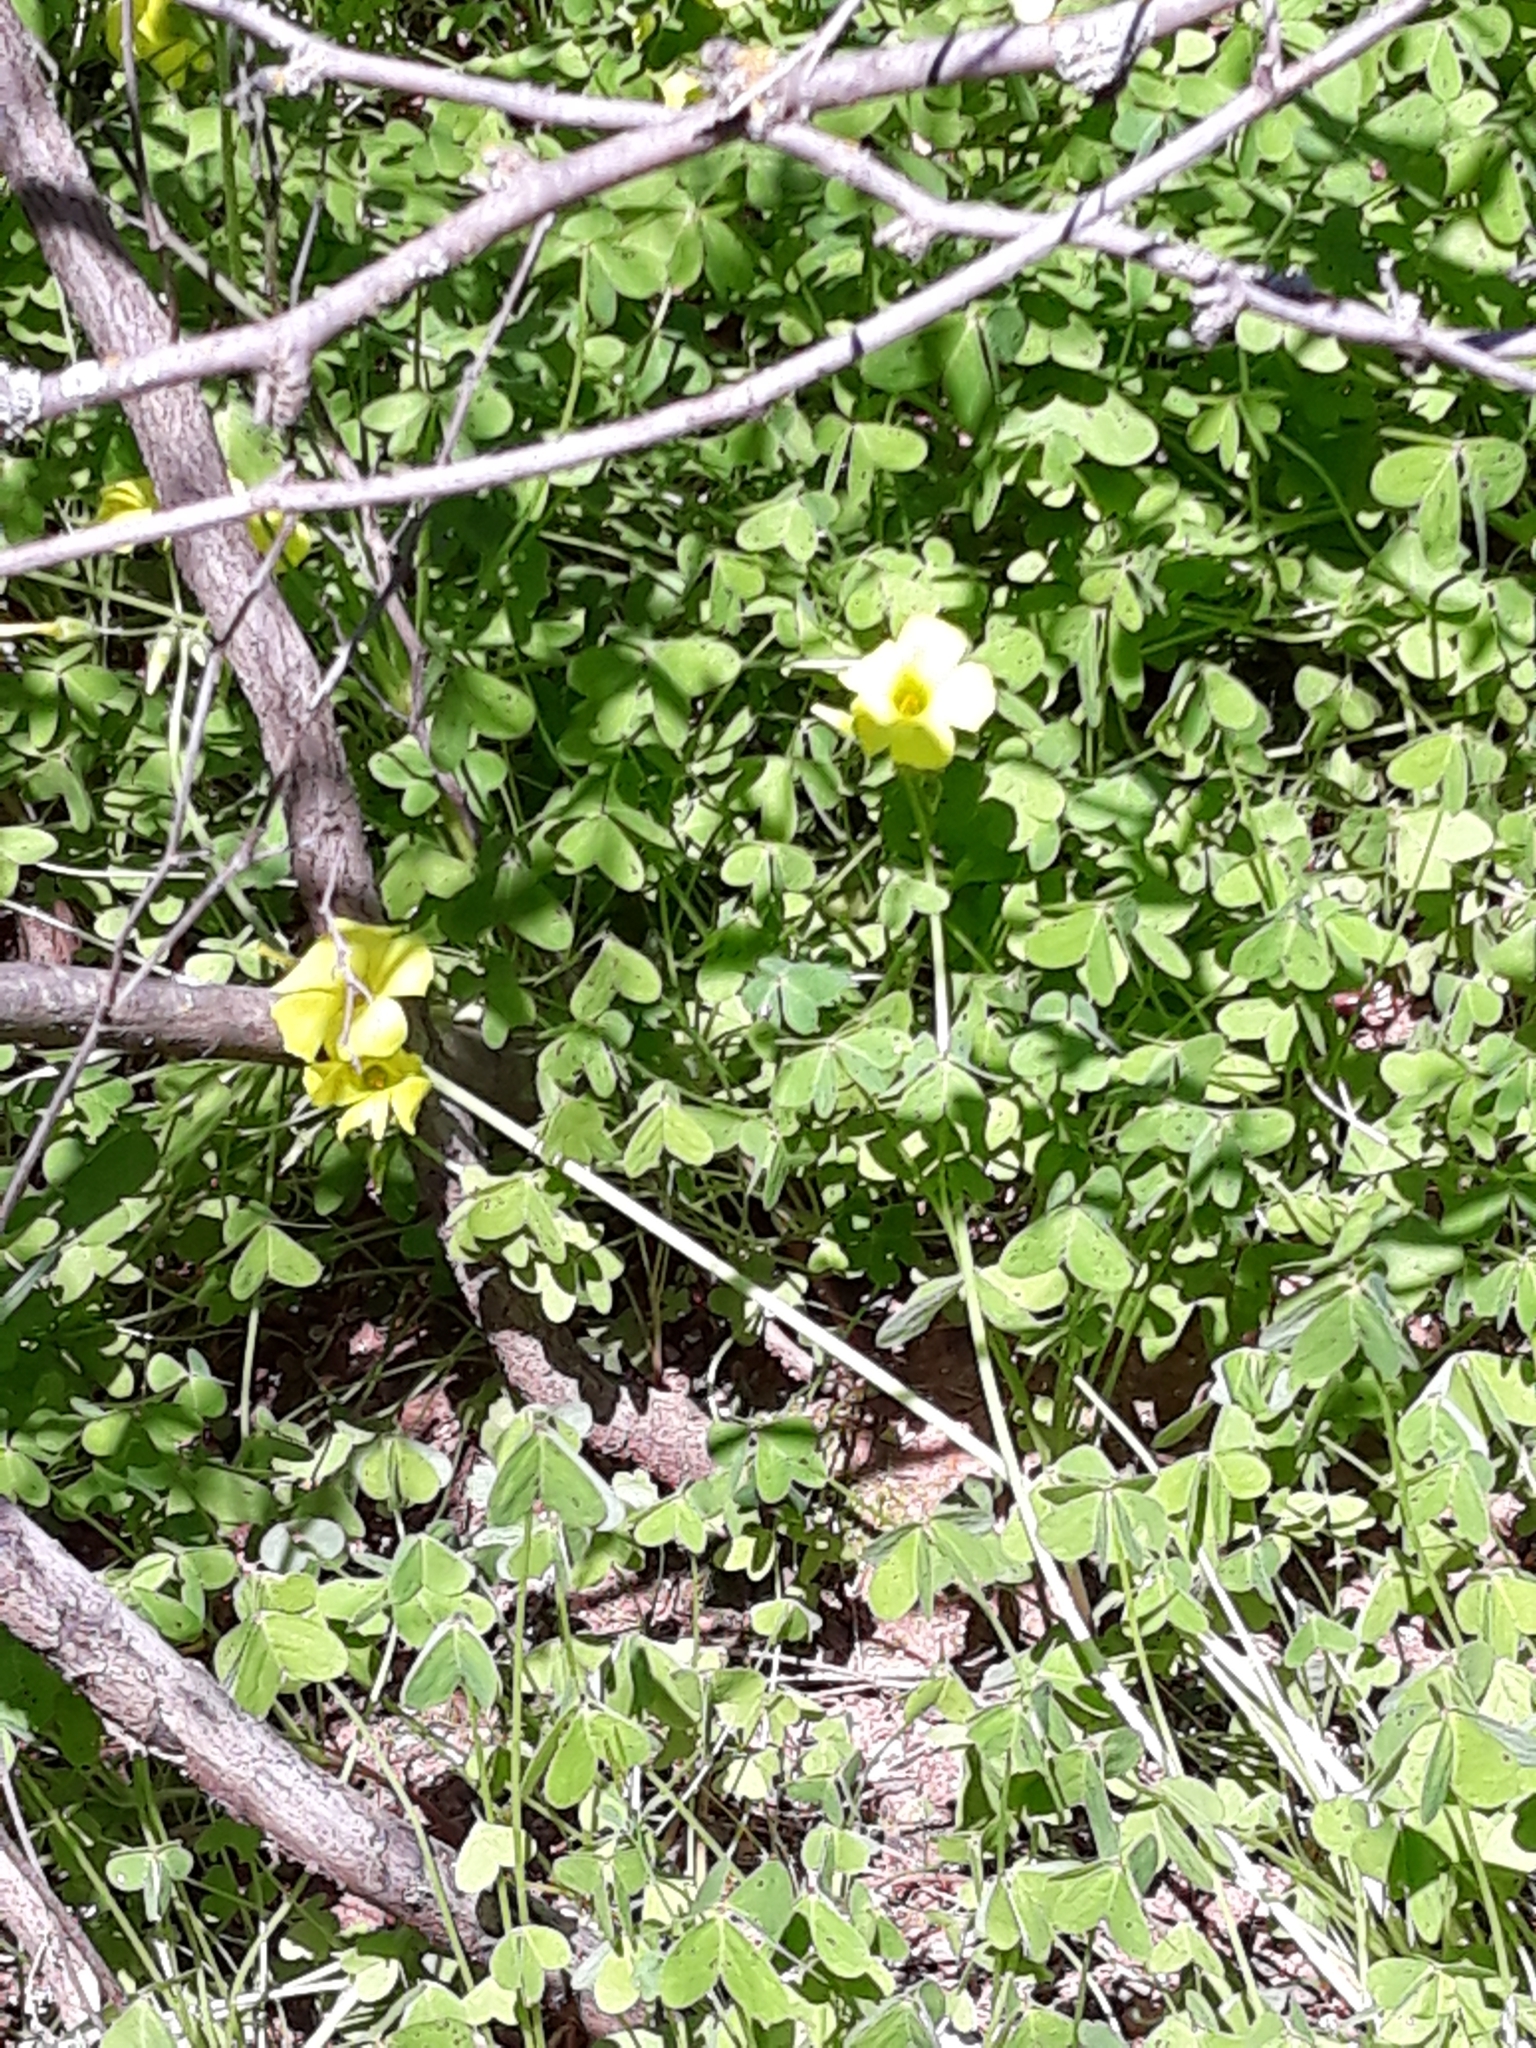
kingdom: Plantae
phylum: Tracheophyta
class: Magnoliopsida
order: Oxalidales
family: Oxalidaceae
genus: Oxalis
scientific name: Oxalis pes-caprae
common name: Bermuda-buttercup
